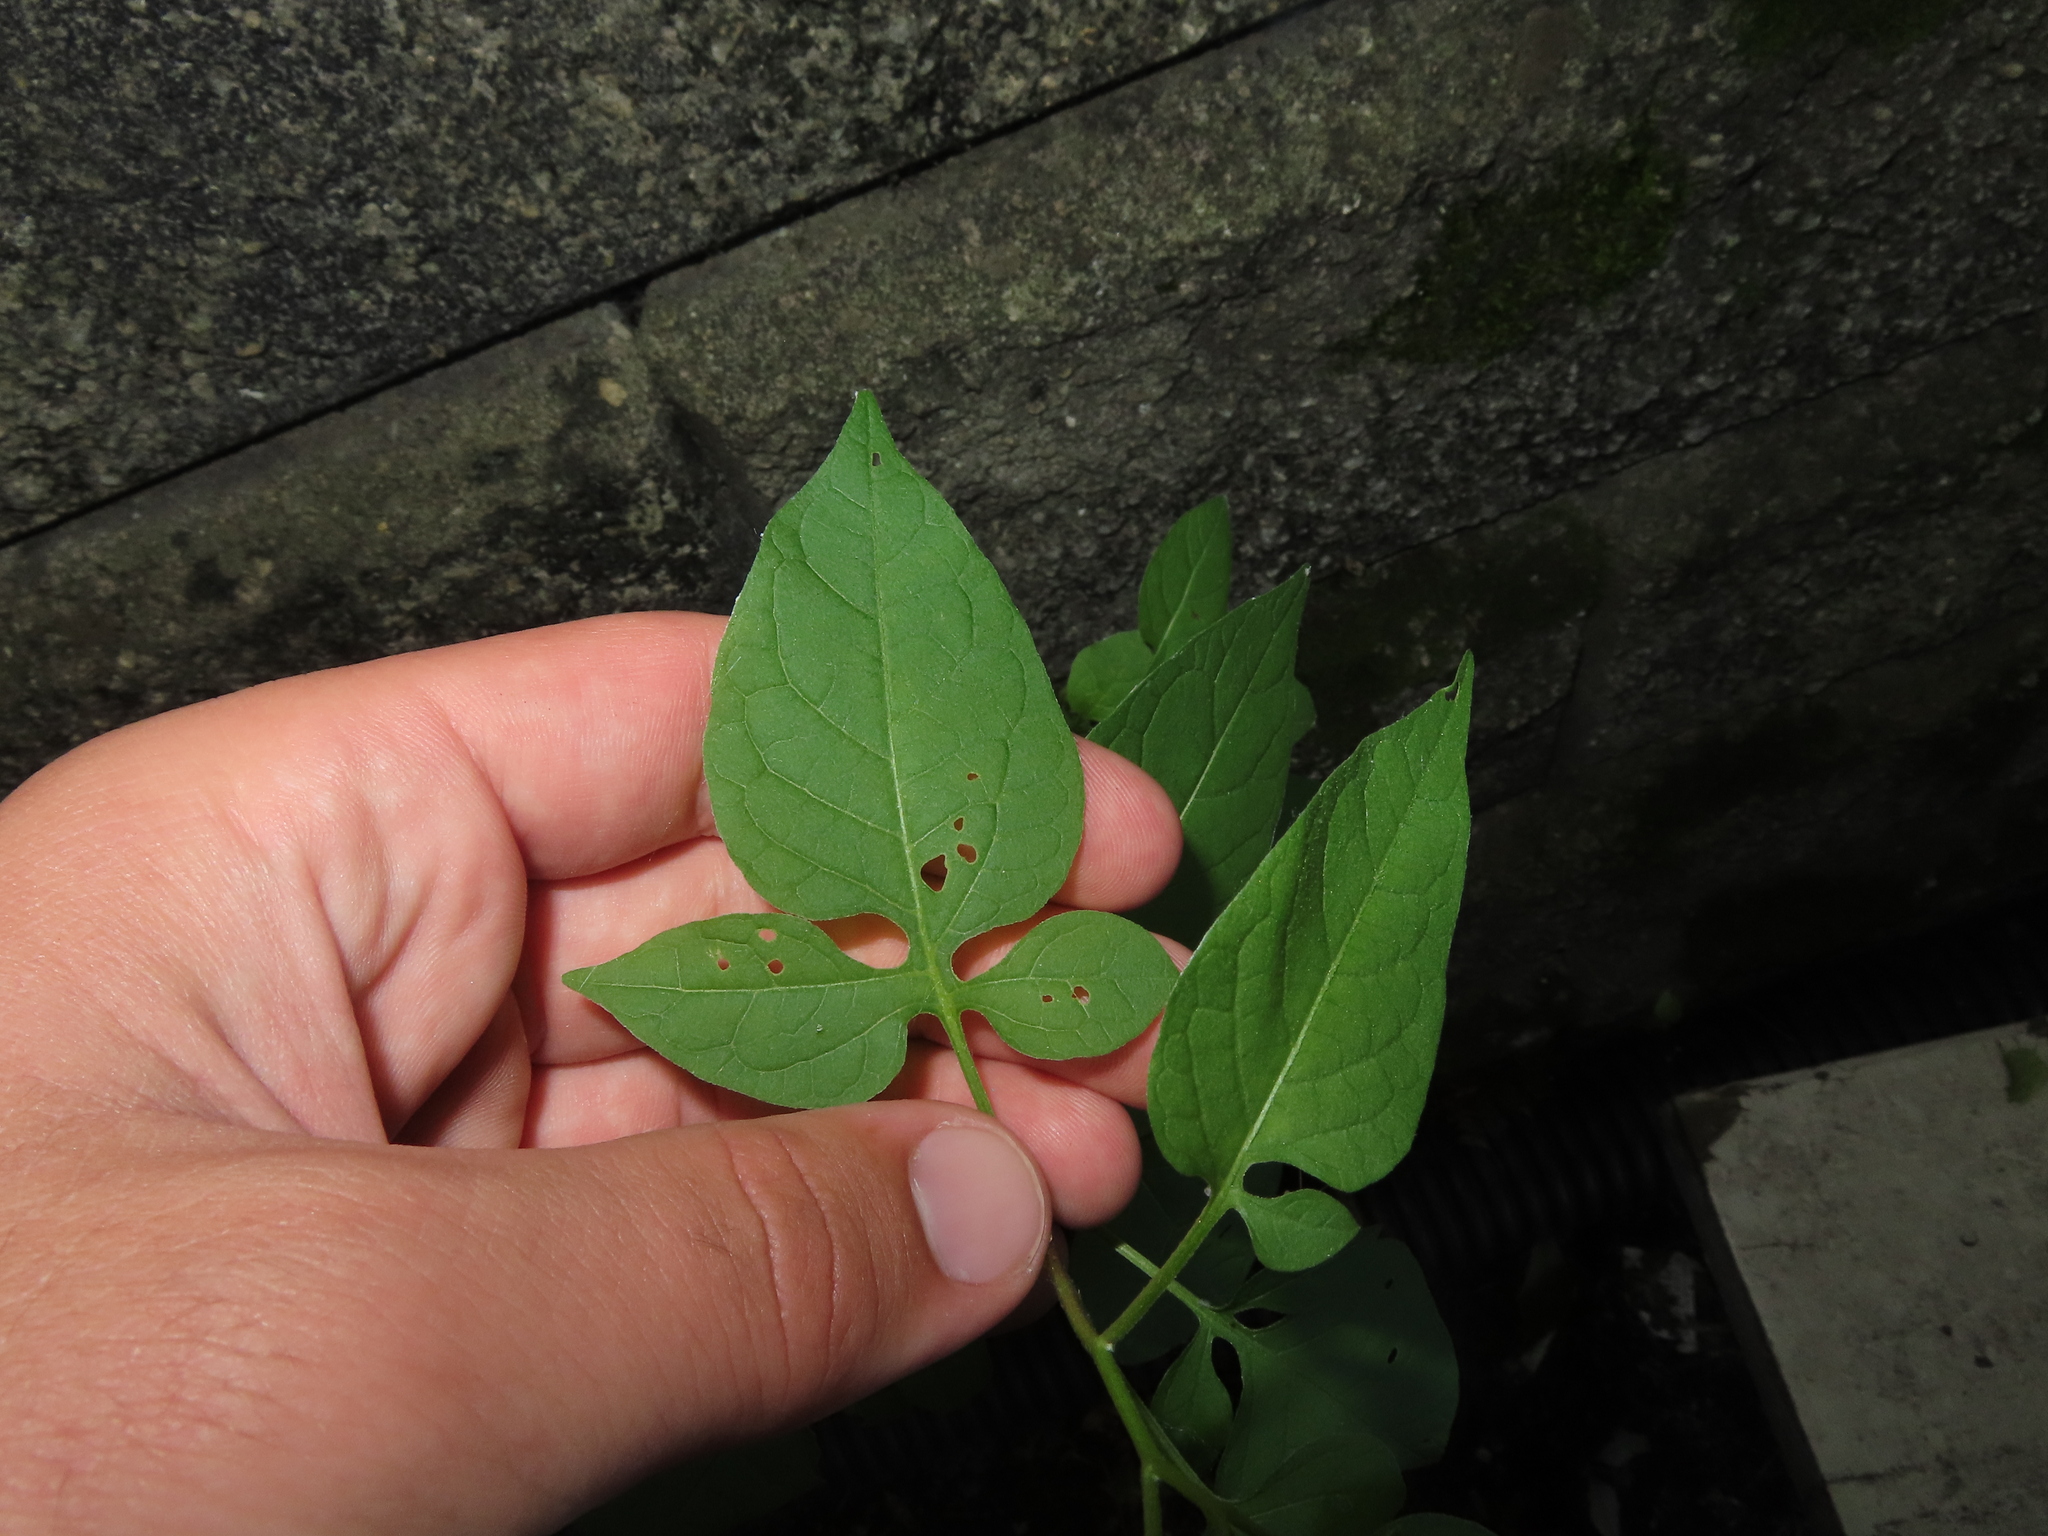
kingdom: Plantae
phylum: Tracheophyta
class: Magnoliopsida
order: Solanales
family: Solanaceae
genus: Solanum
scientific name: Solanum dulcamara
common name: Climbing nightshade
